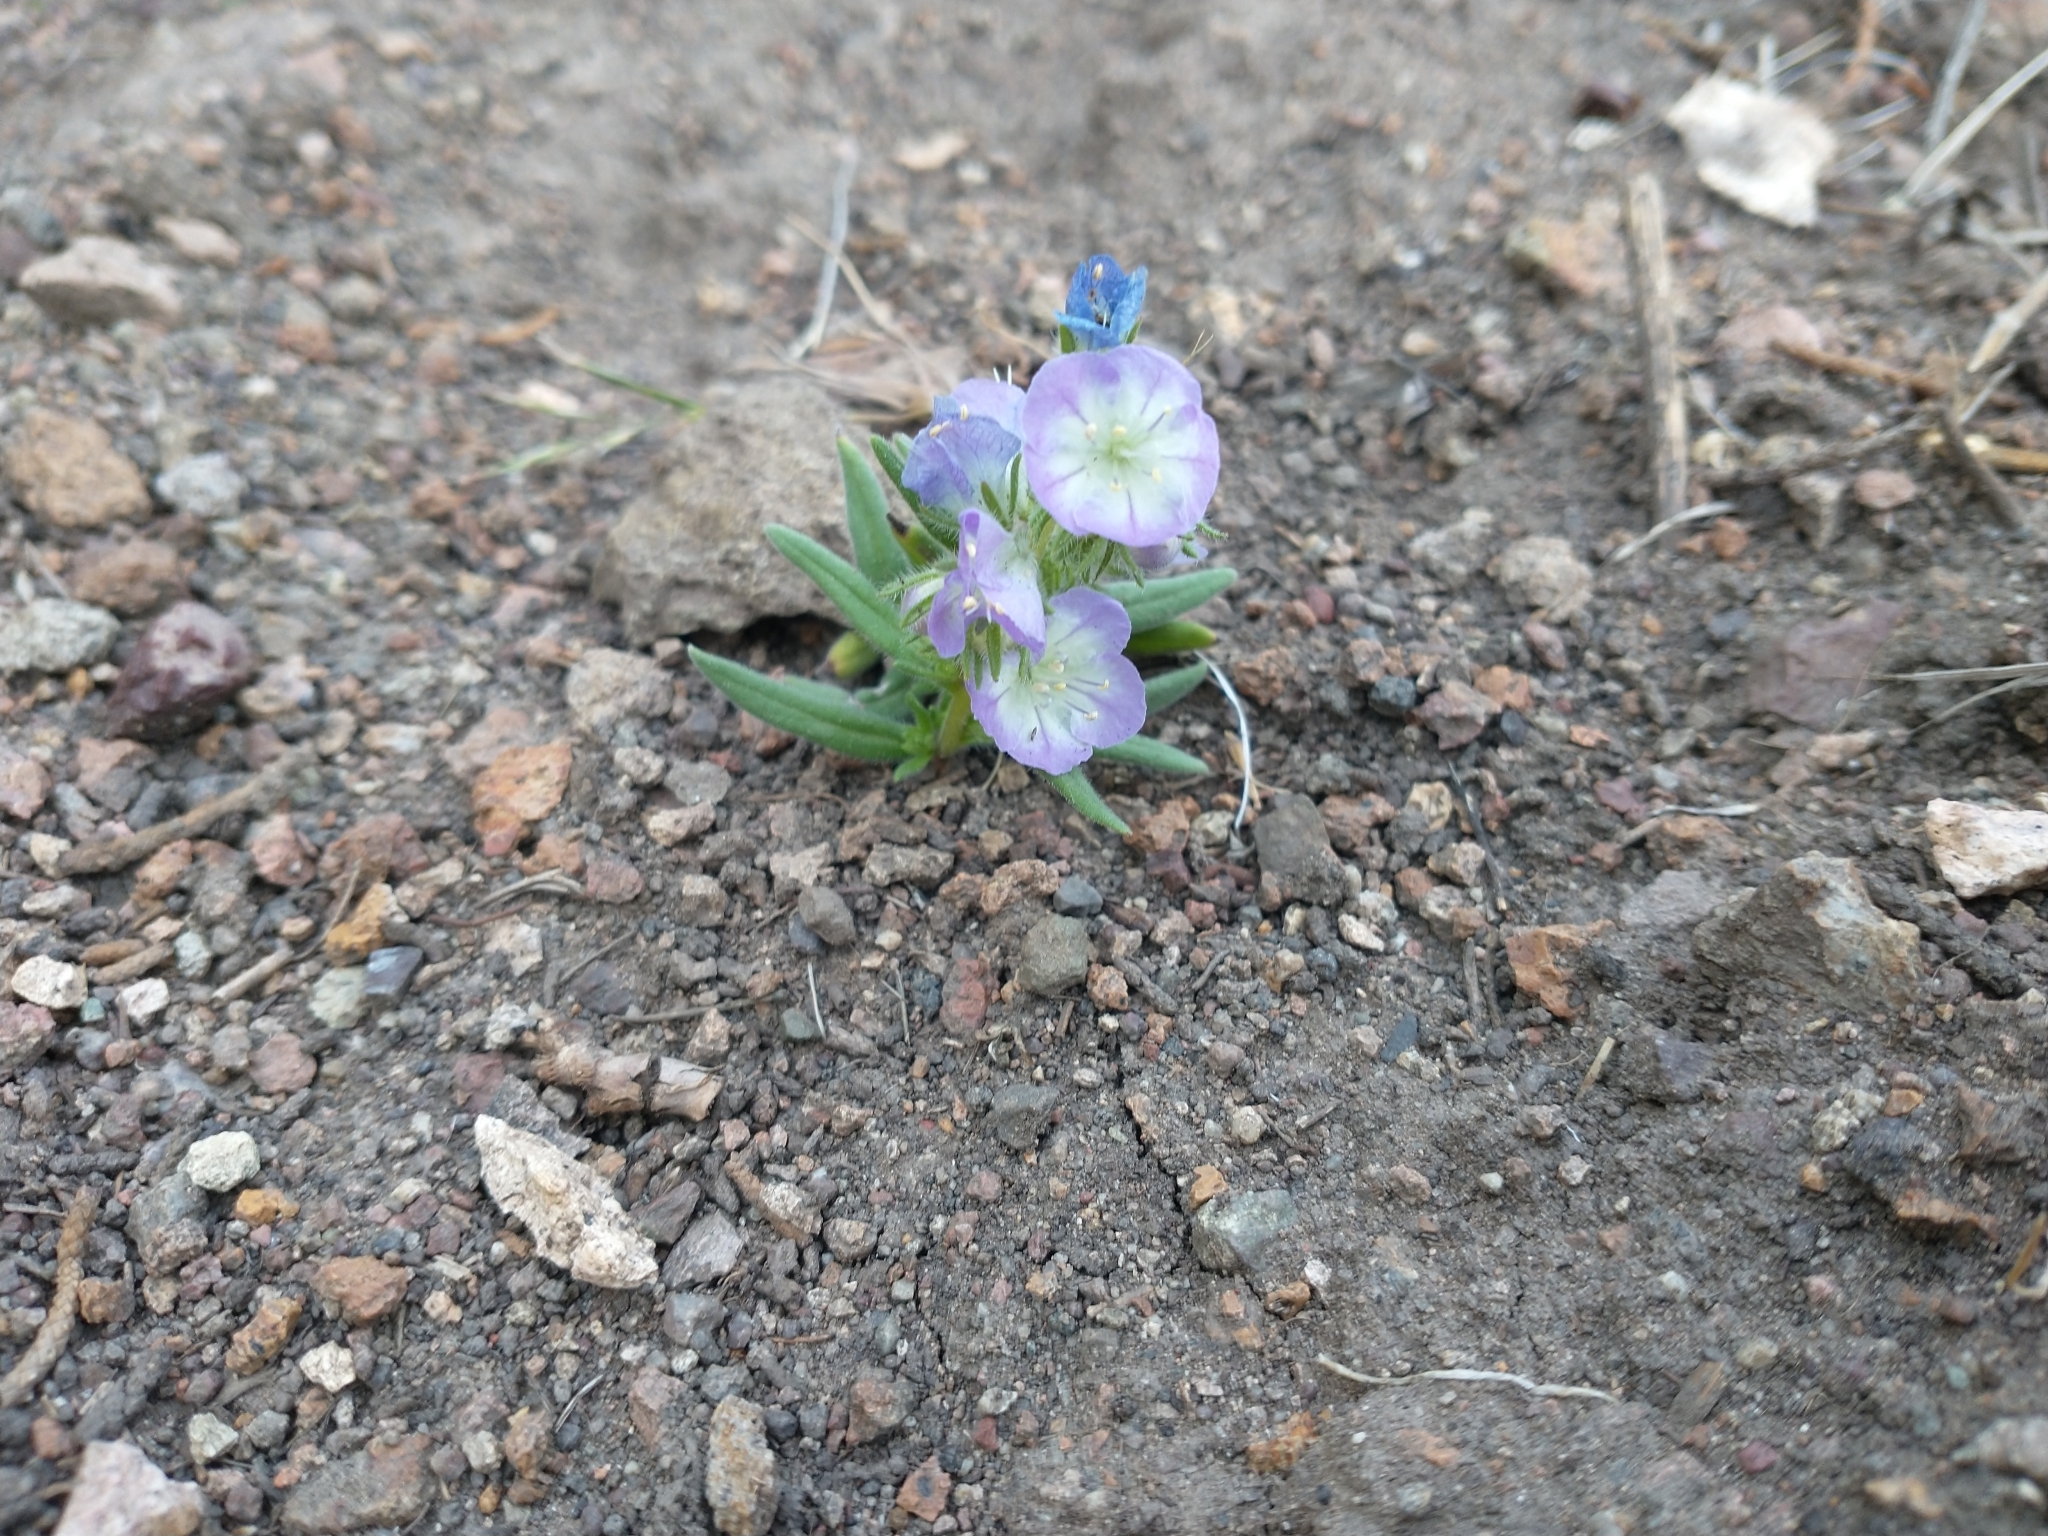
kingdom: Plantae
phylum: Tracheophyta
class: Magnoliopsida
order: Boraginales
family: Hydrophyllaceae
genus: Phacelia
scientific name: Phacelia linearis
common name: Linear-leaved phacelia
